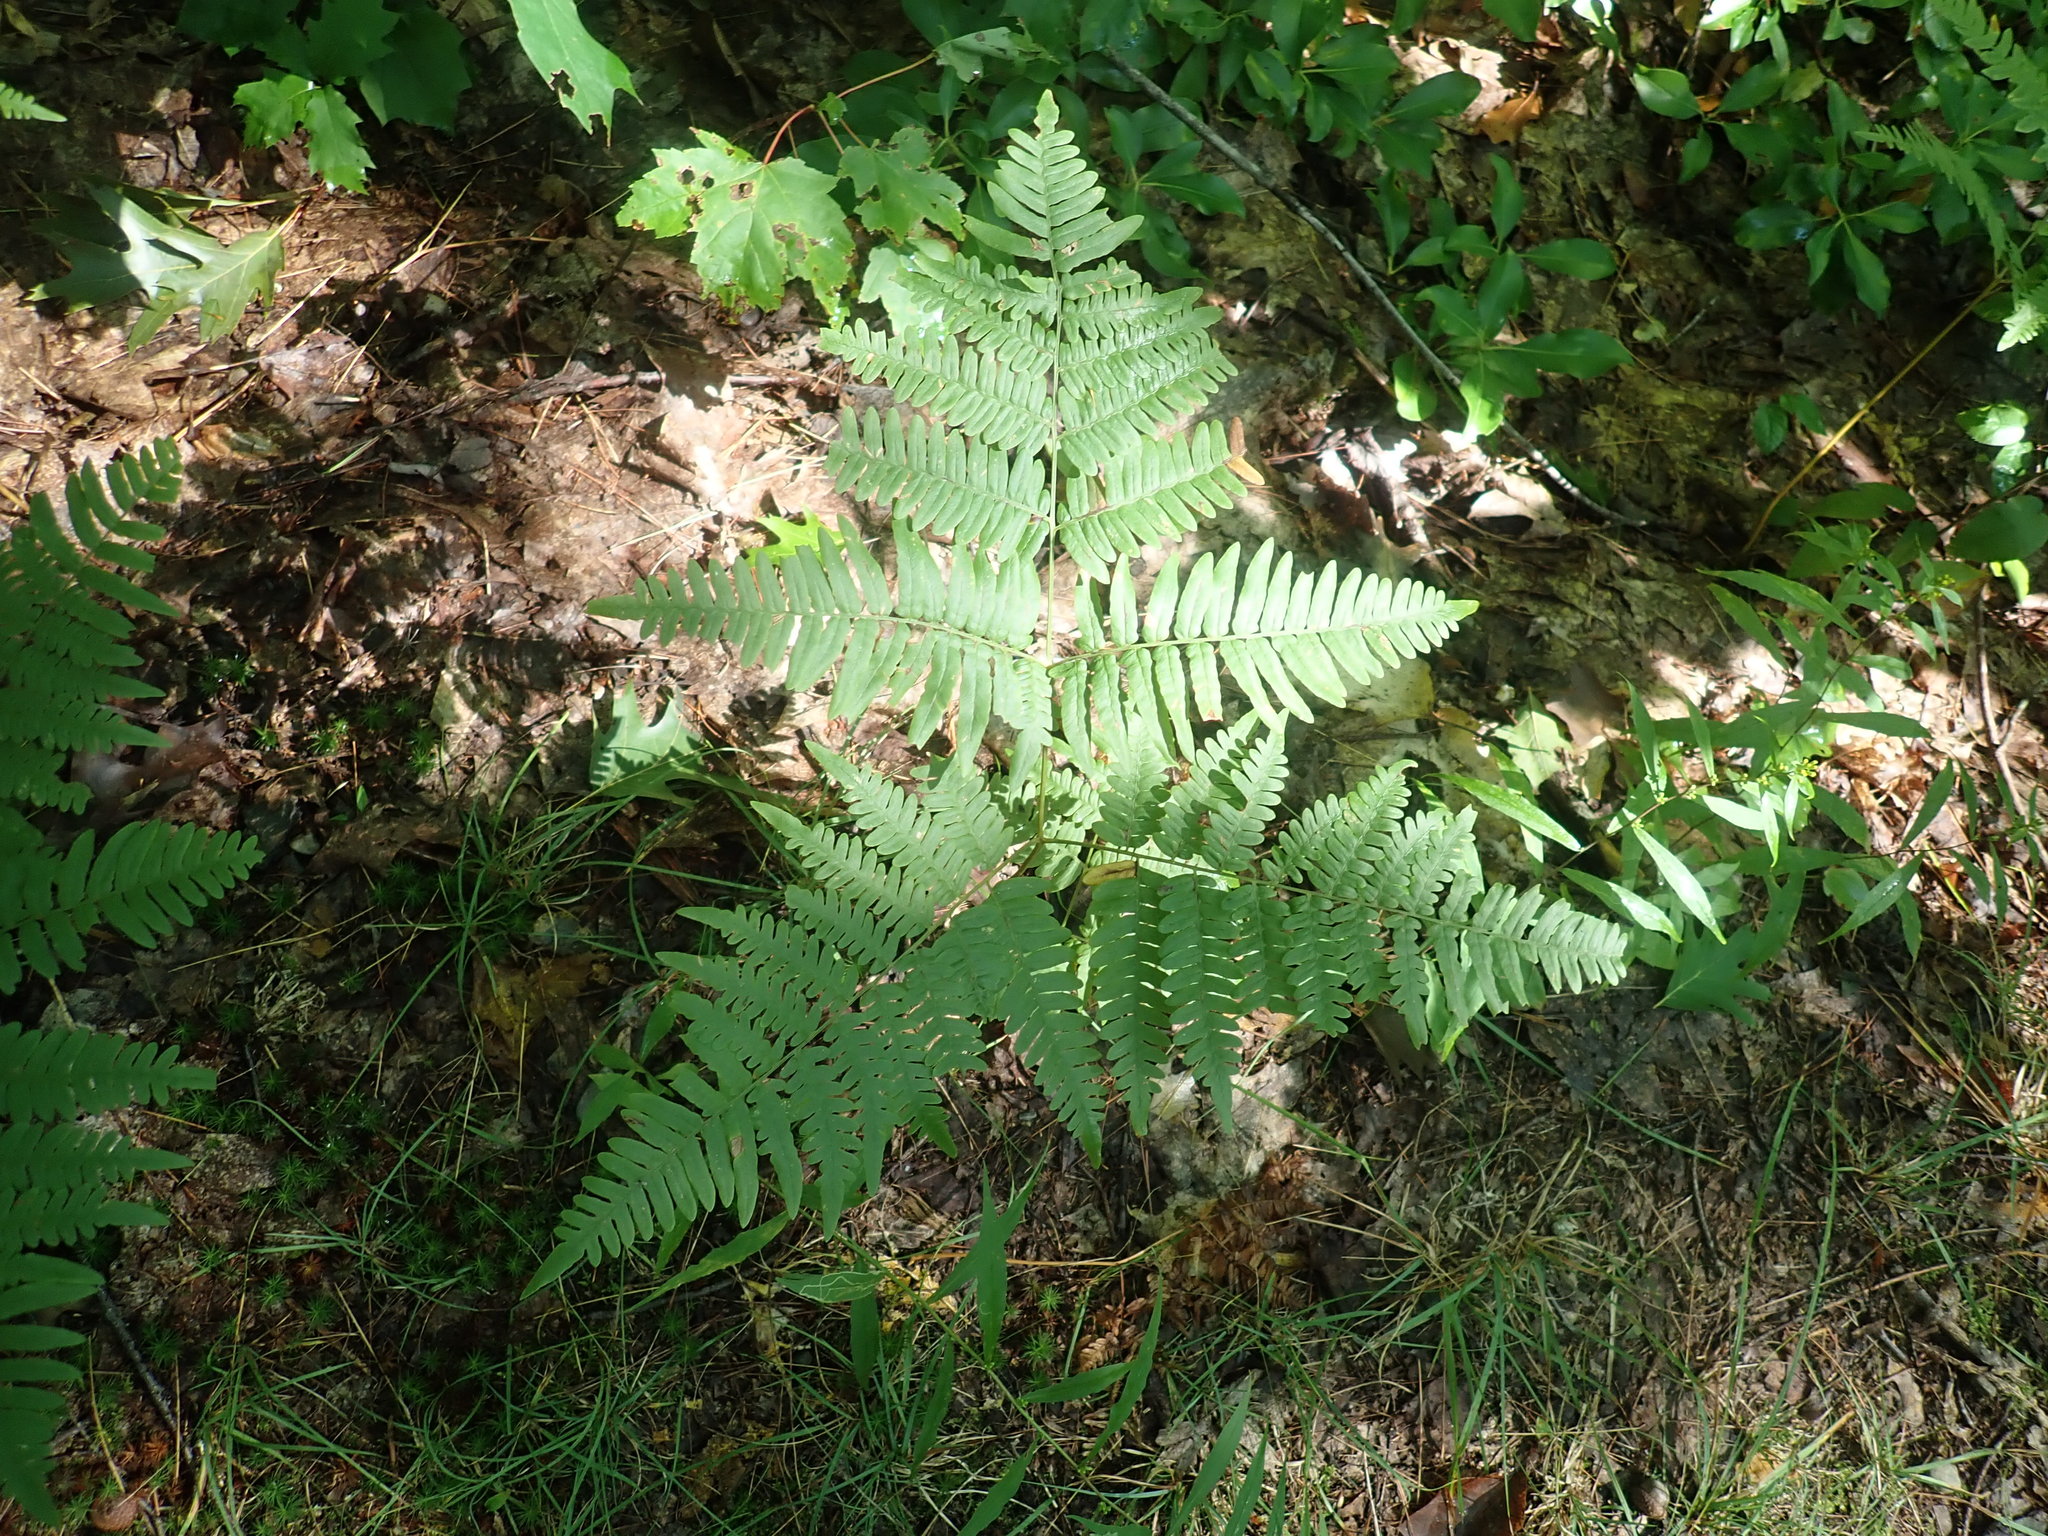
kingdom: Plantae
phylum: Tracheophyta
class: Polypodiopsida
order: Polypodiales
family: Dennstaedtiaceae
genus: Pteridium
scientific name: Pteridium aquilinum
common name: Bracken
